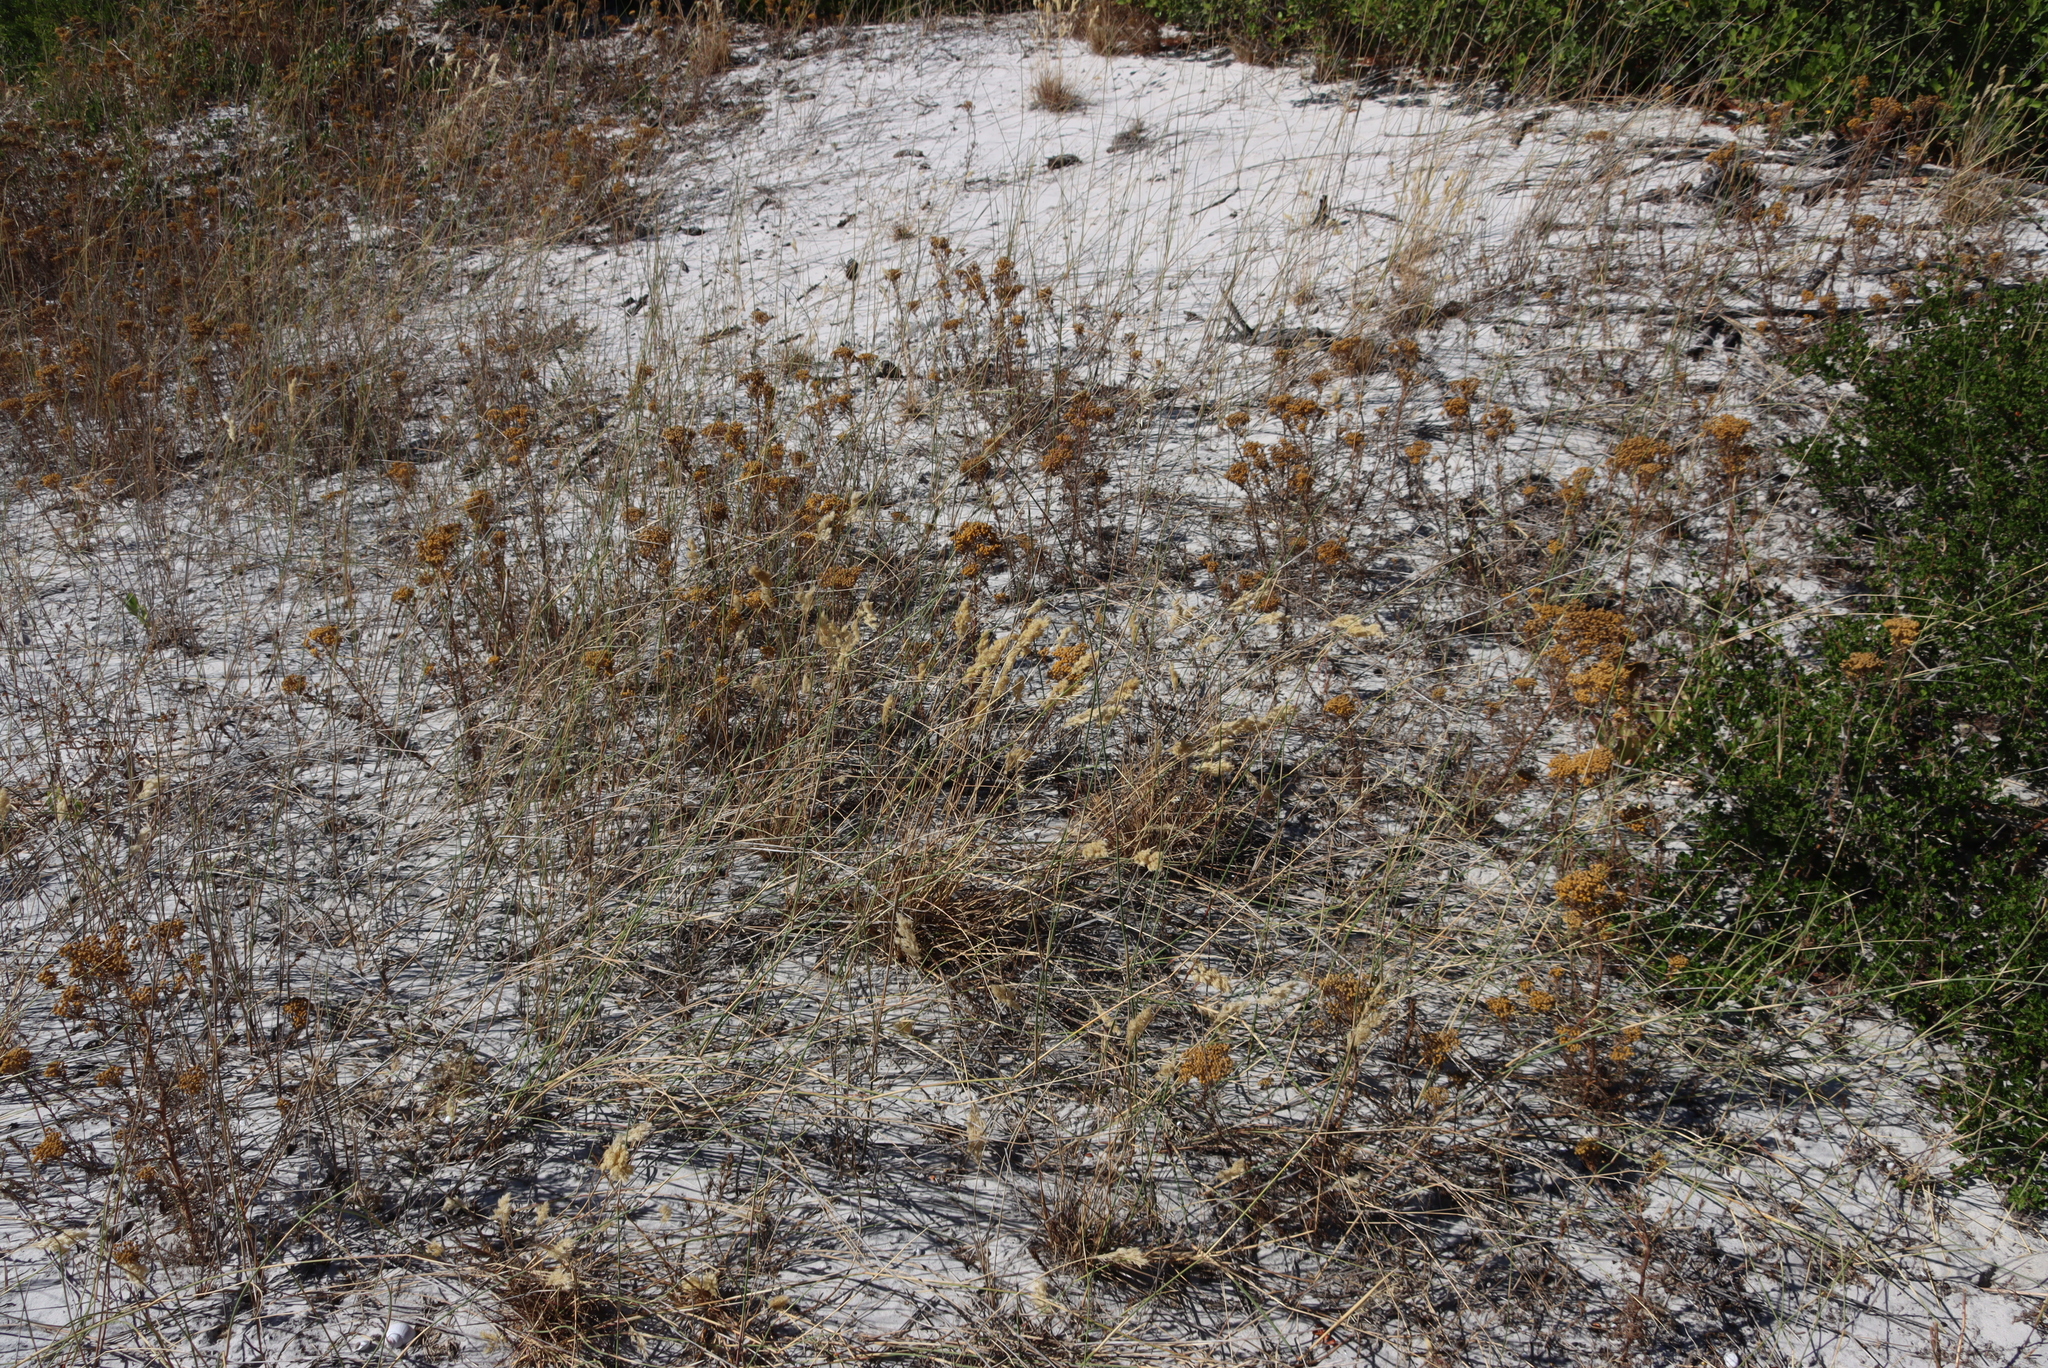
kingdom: Plantae
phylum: Tracheophyta
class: Magnoliopsida
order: Asterales
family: Asteraceae
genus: Oncosiphon
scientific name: Oncosiphon suffruticosus
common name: Shrubby mayweed
